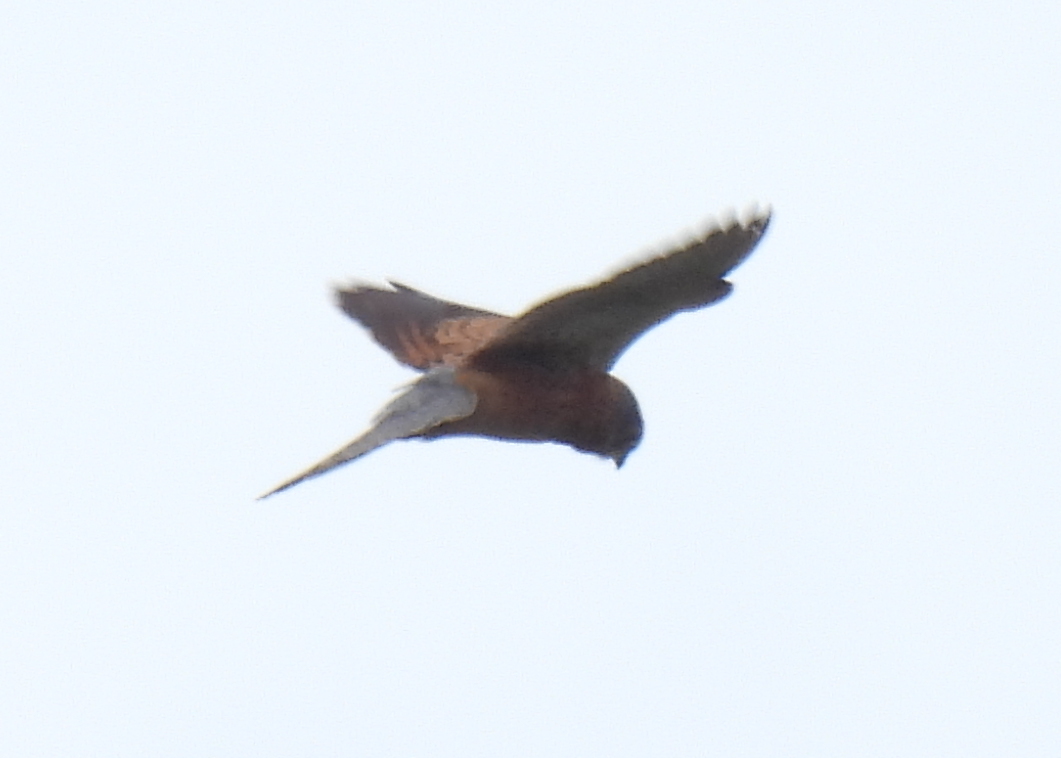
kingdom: Animalia
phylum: Chordata
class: Aves
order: Falconiformes
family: Falconidae
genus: Falco
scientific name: Falco rupicolus
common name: Rock kestrel
